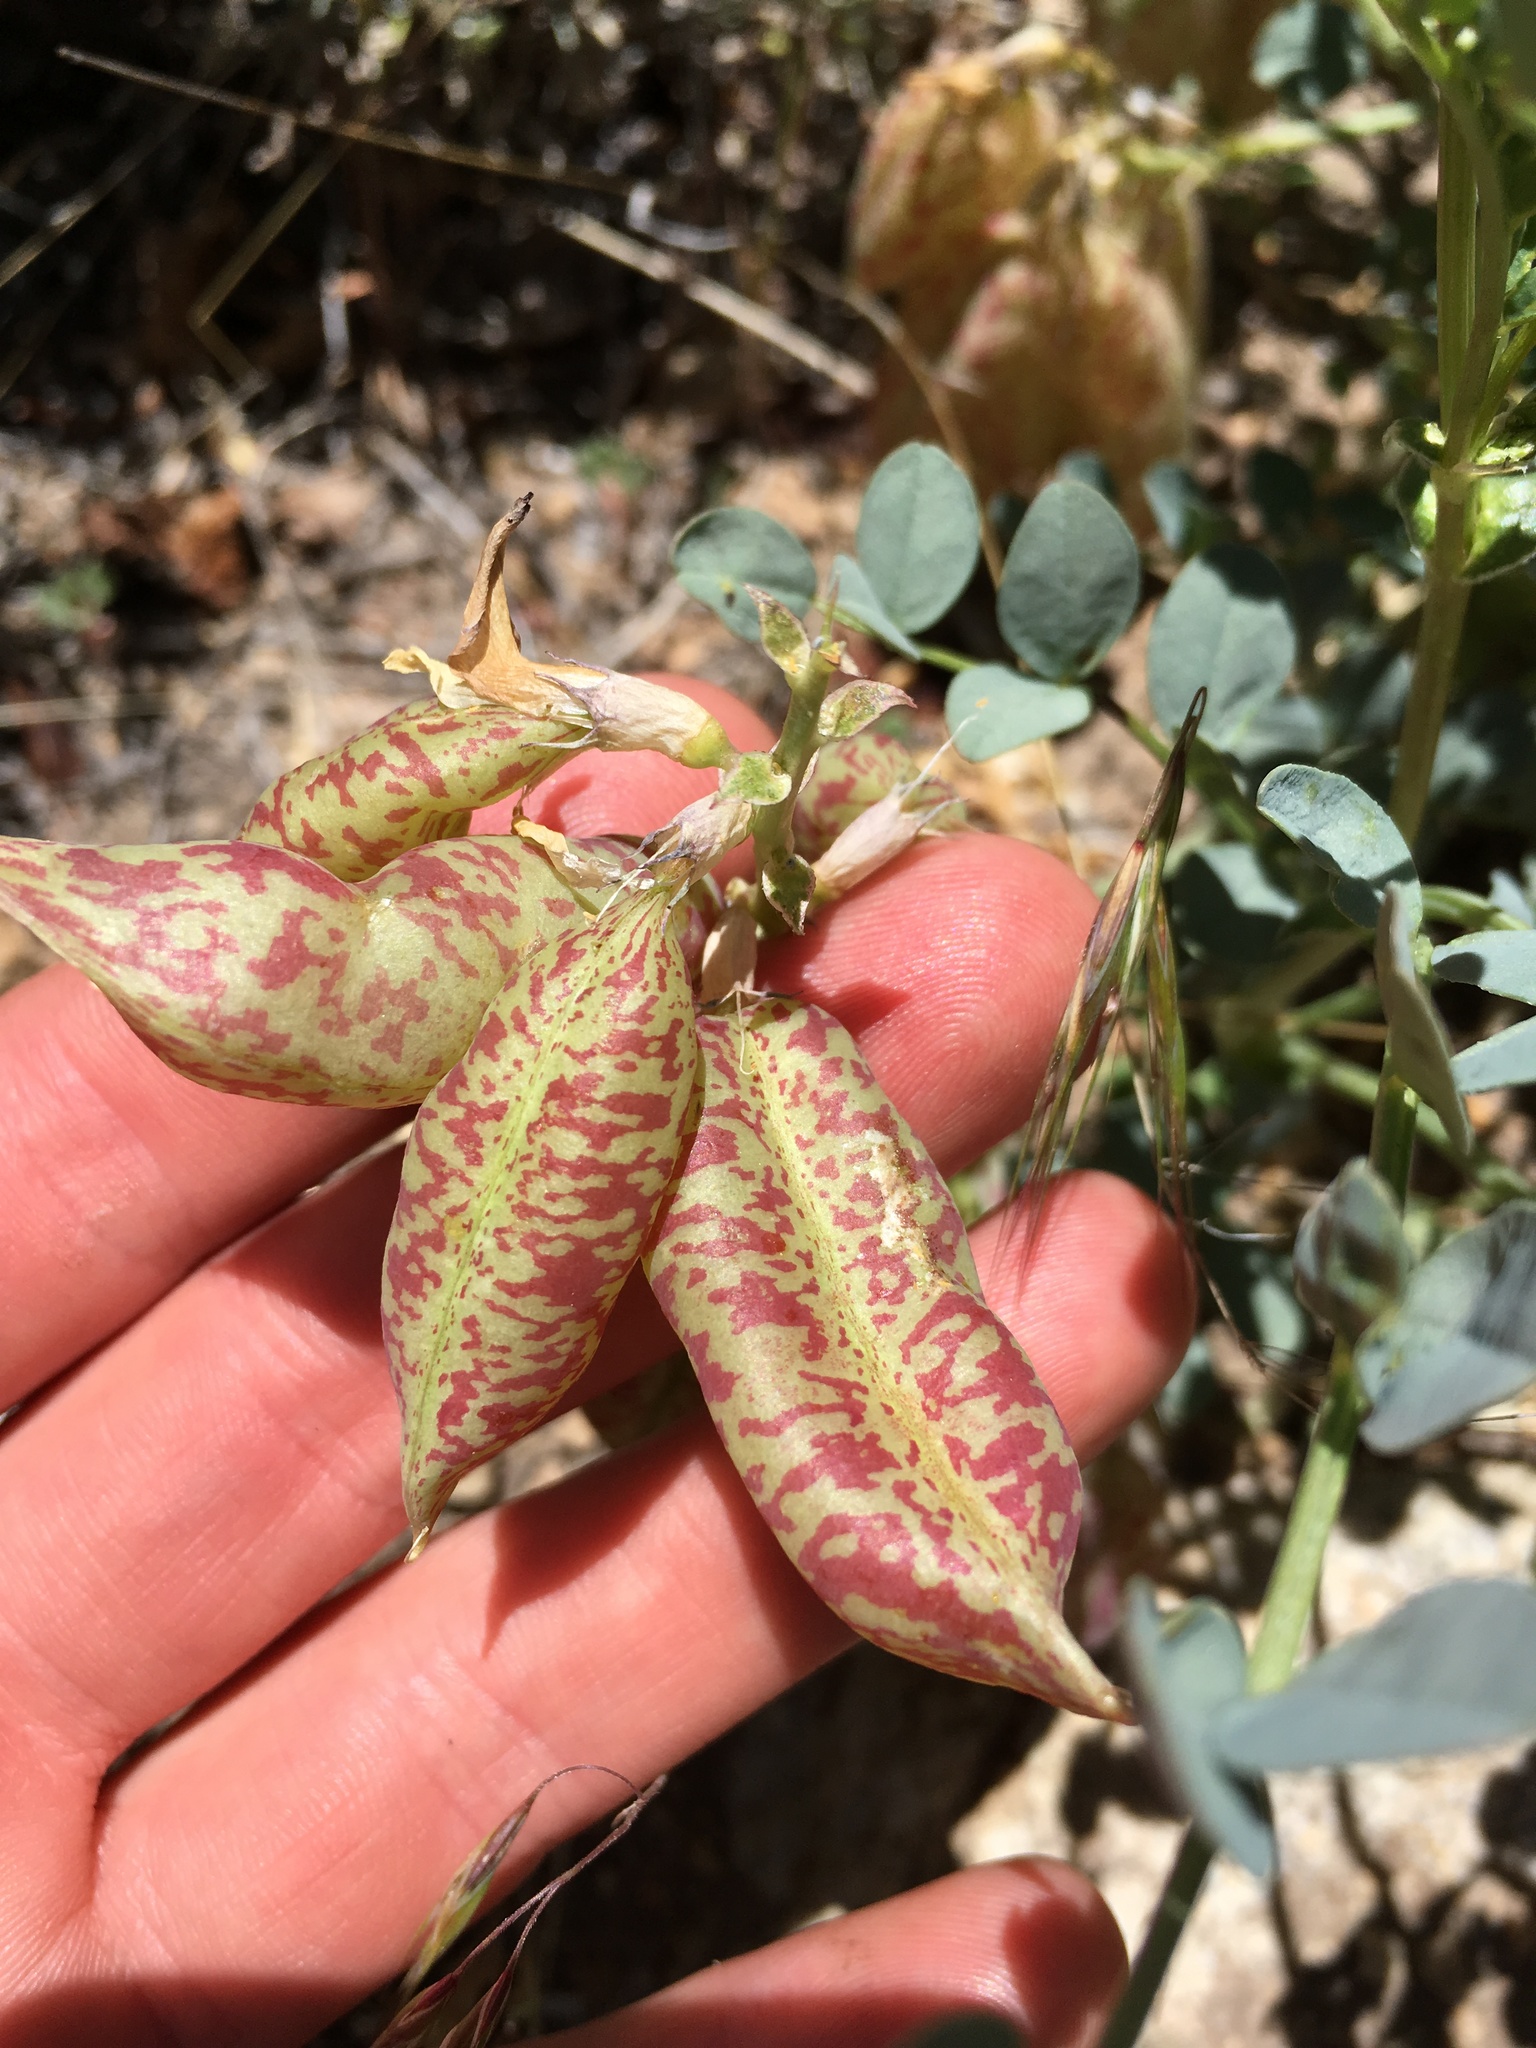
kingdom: Plantae
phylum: Tracheophyta
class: Magnoliopsida
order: Fabales
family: Fabaceae
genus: Astragalus
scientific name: Astragalus oophorus
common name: Egg milkvetch
